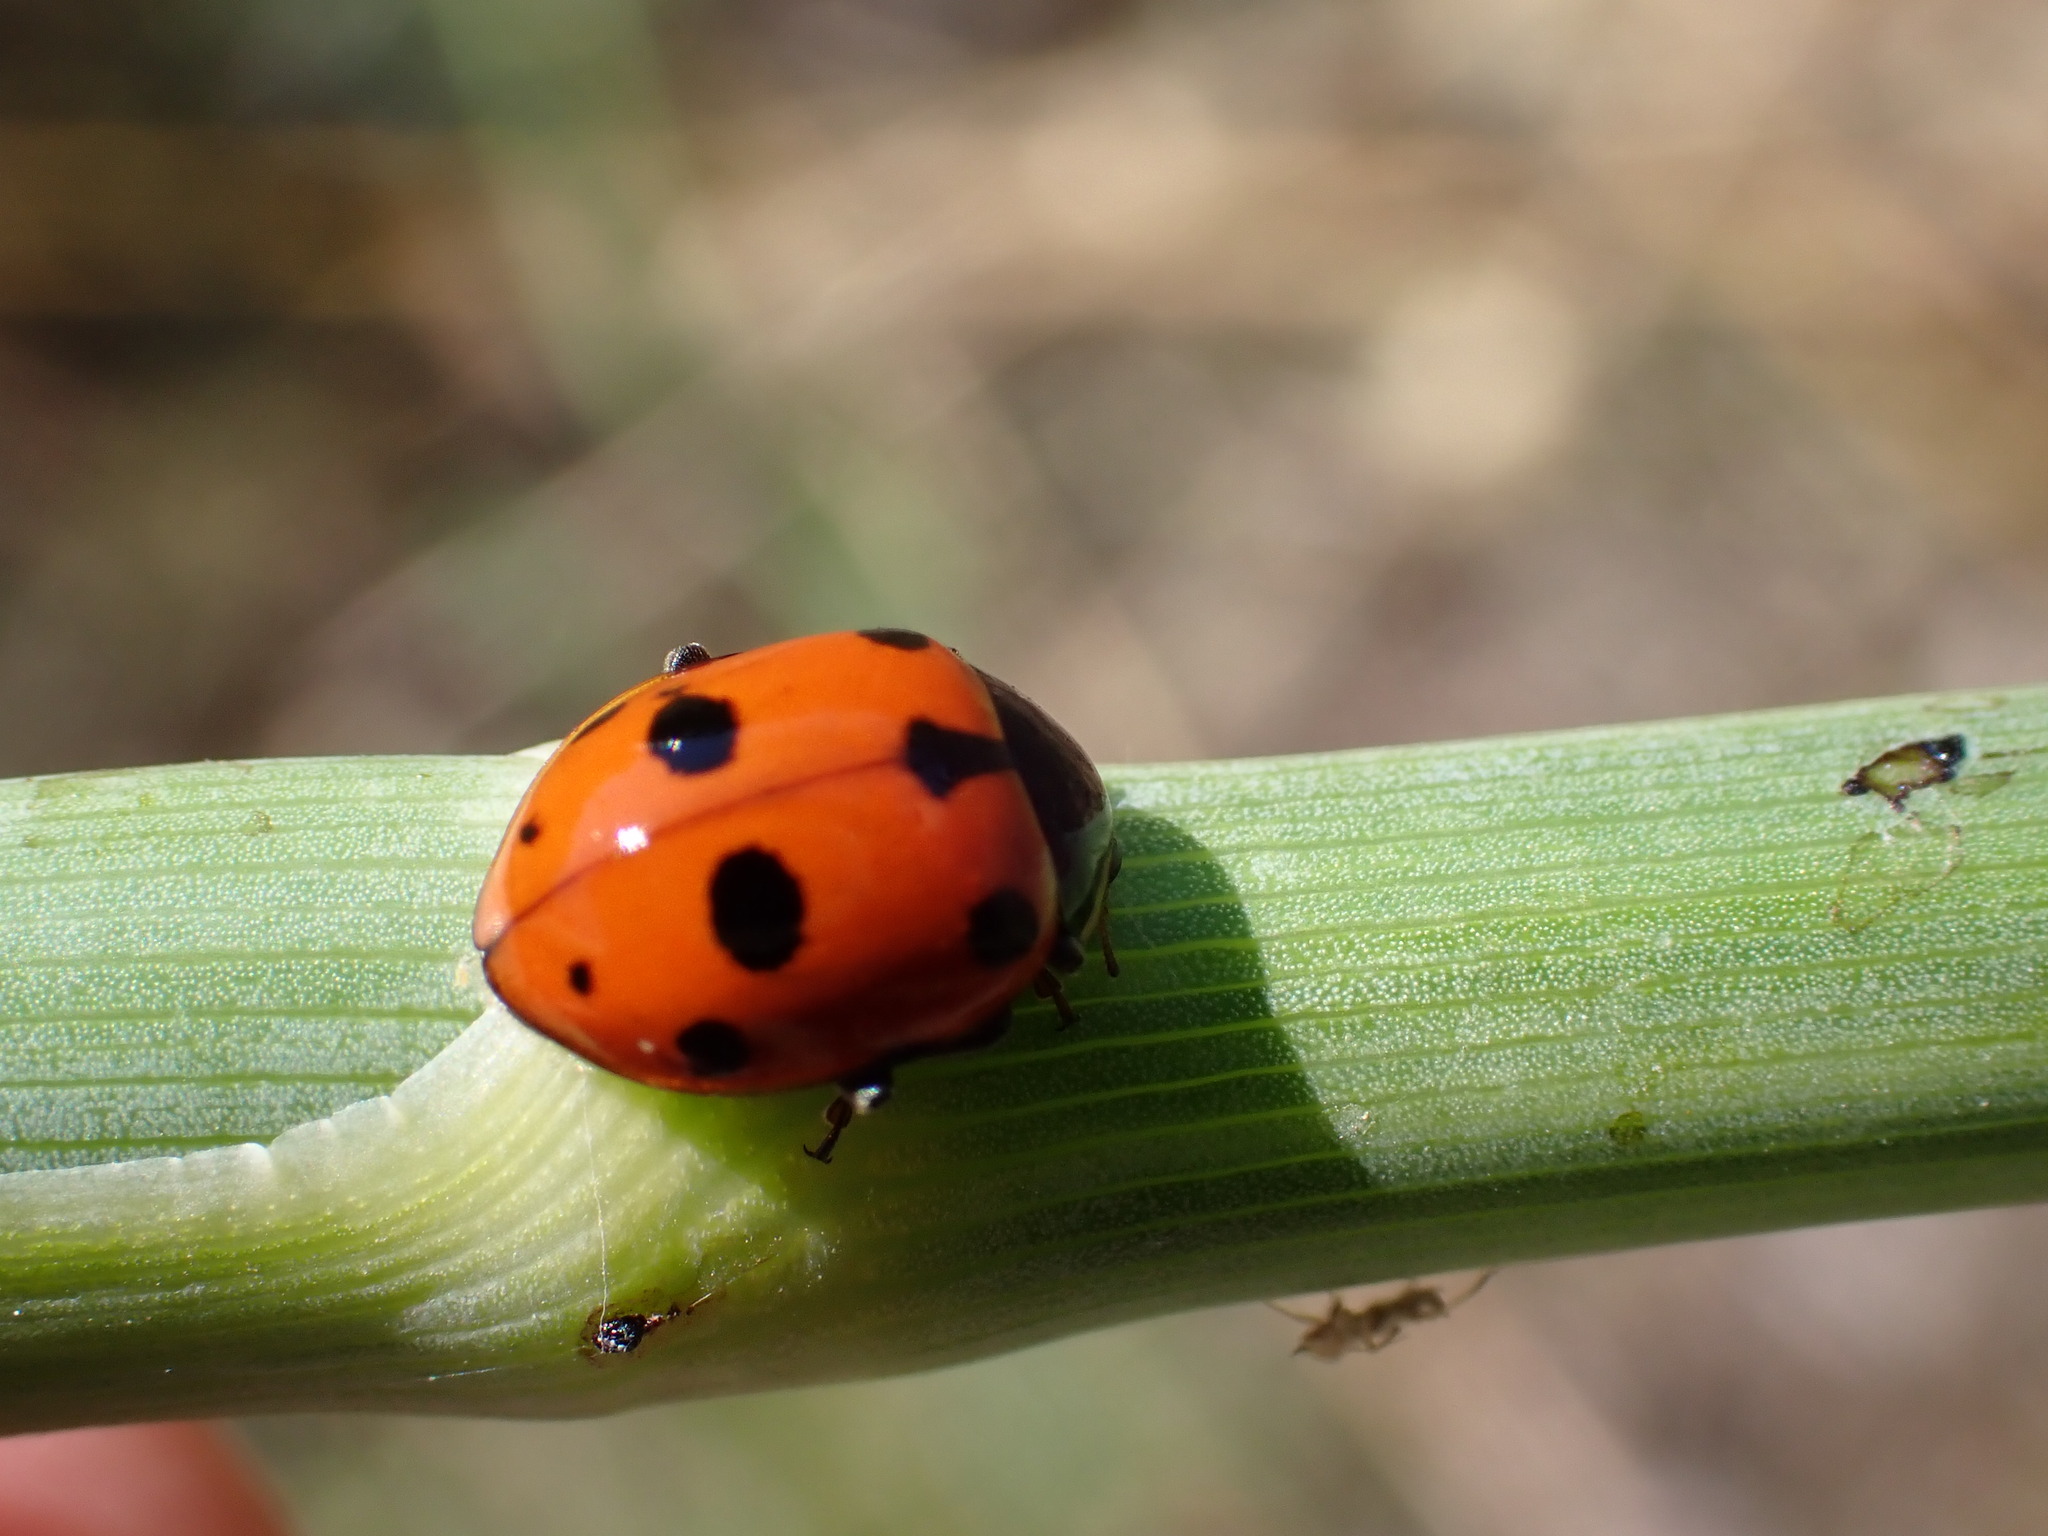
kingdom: Animalia
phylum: Arthropoda
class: Insecta
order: Coleoptera
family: Coccinellidae
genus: Ceratomegilla
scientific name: Ceratomegilla undecimnotata
